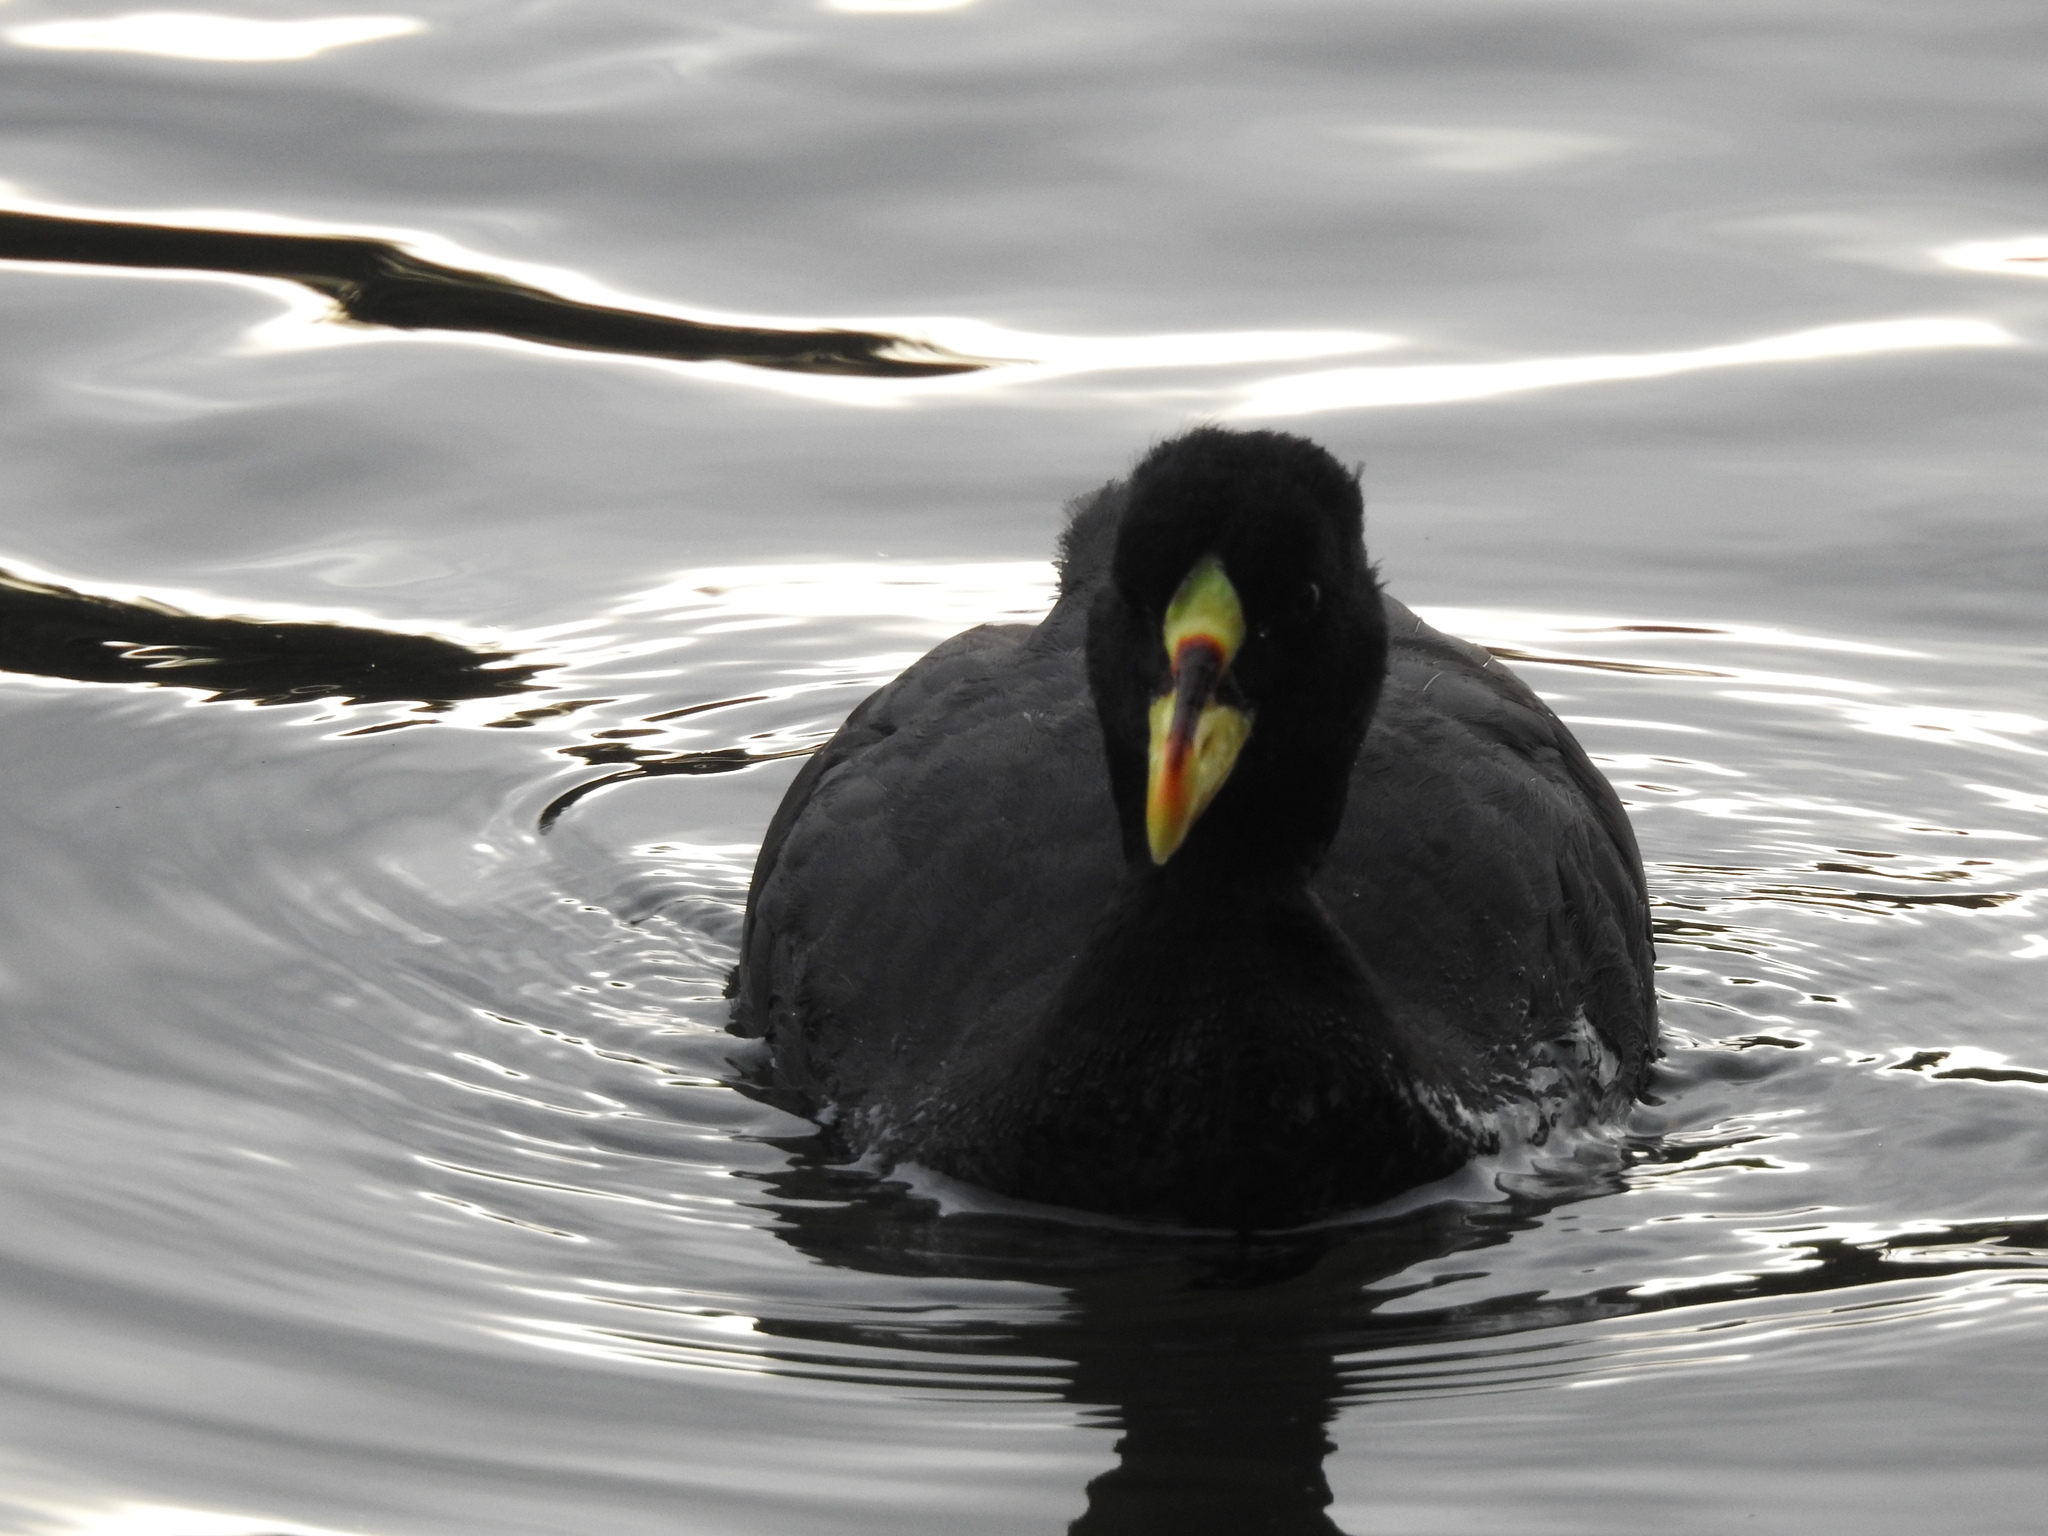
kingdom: Animalia
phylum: Chordata
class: Aves
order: Gruiformes
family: Rallidae
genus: Fulica
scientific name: Fulica armillata
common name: Red-gartered coot
